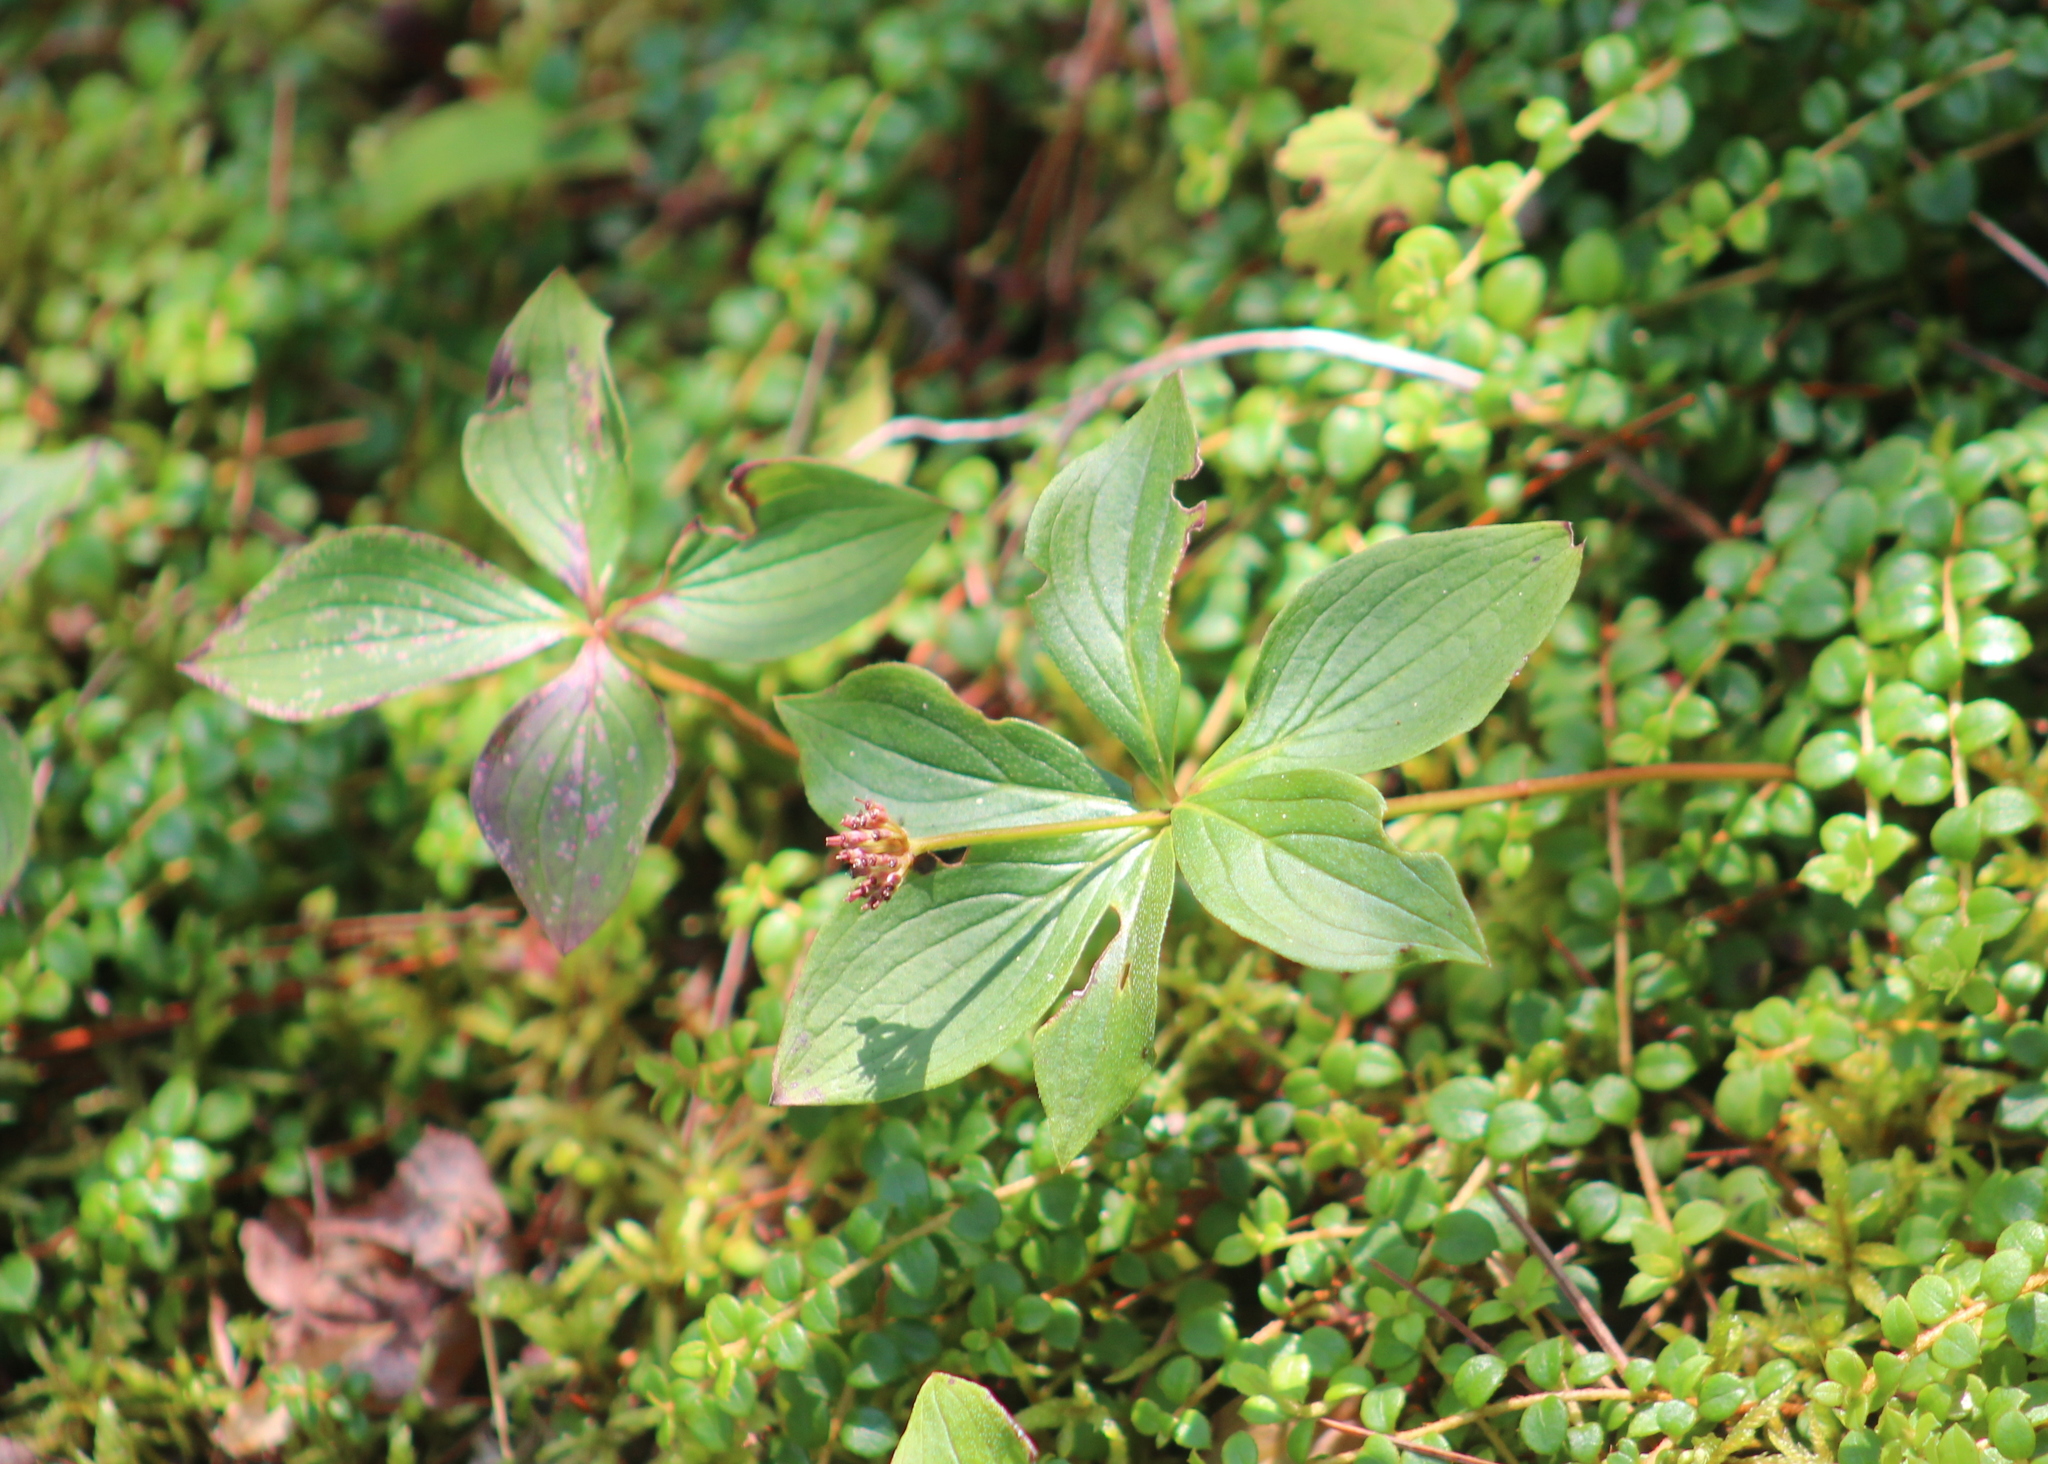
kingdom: Plantae
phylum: Tracheophyta
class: Magnoliopsida
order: Cornales
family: Cornaceae
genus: Cornus
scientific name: Cornus canadensis
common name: Creeping dogwood
